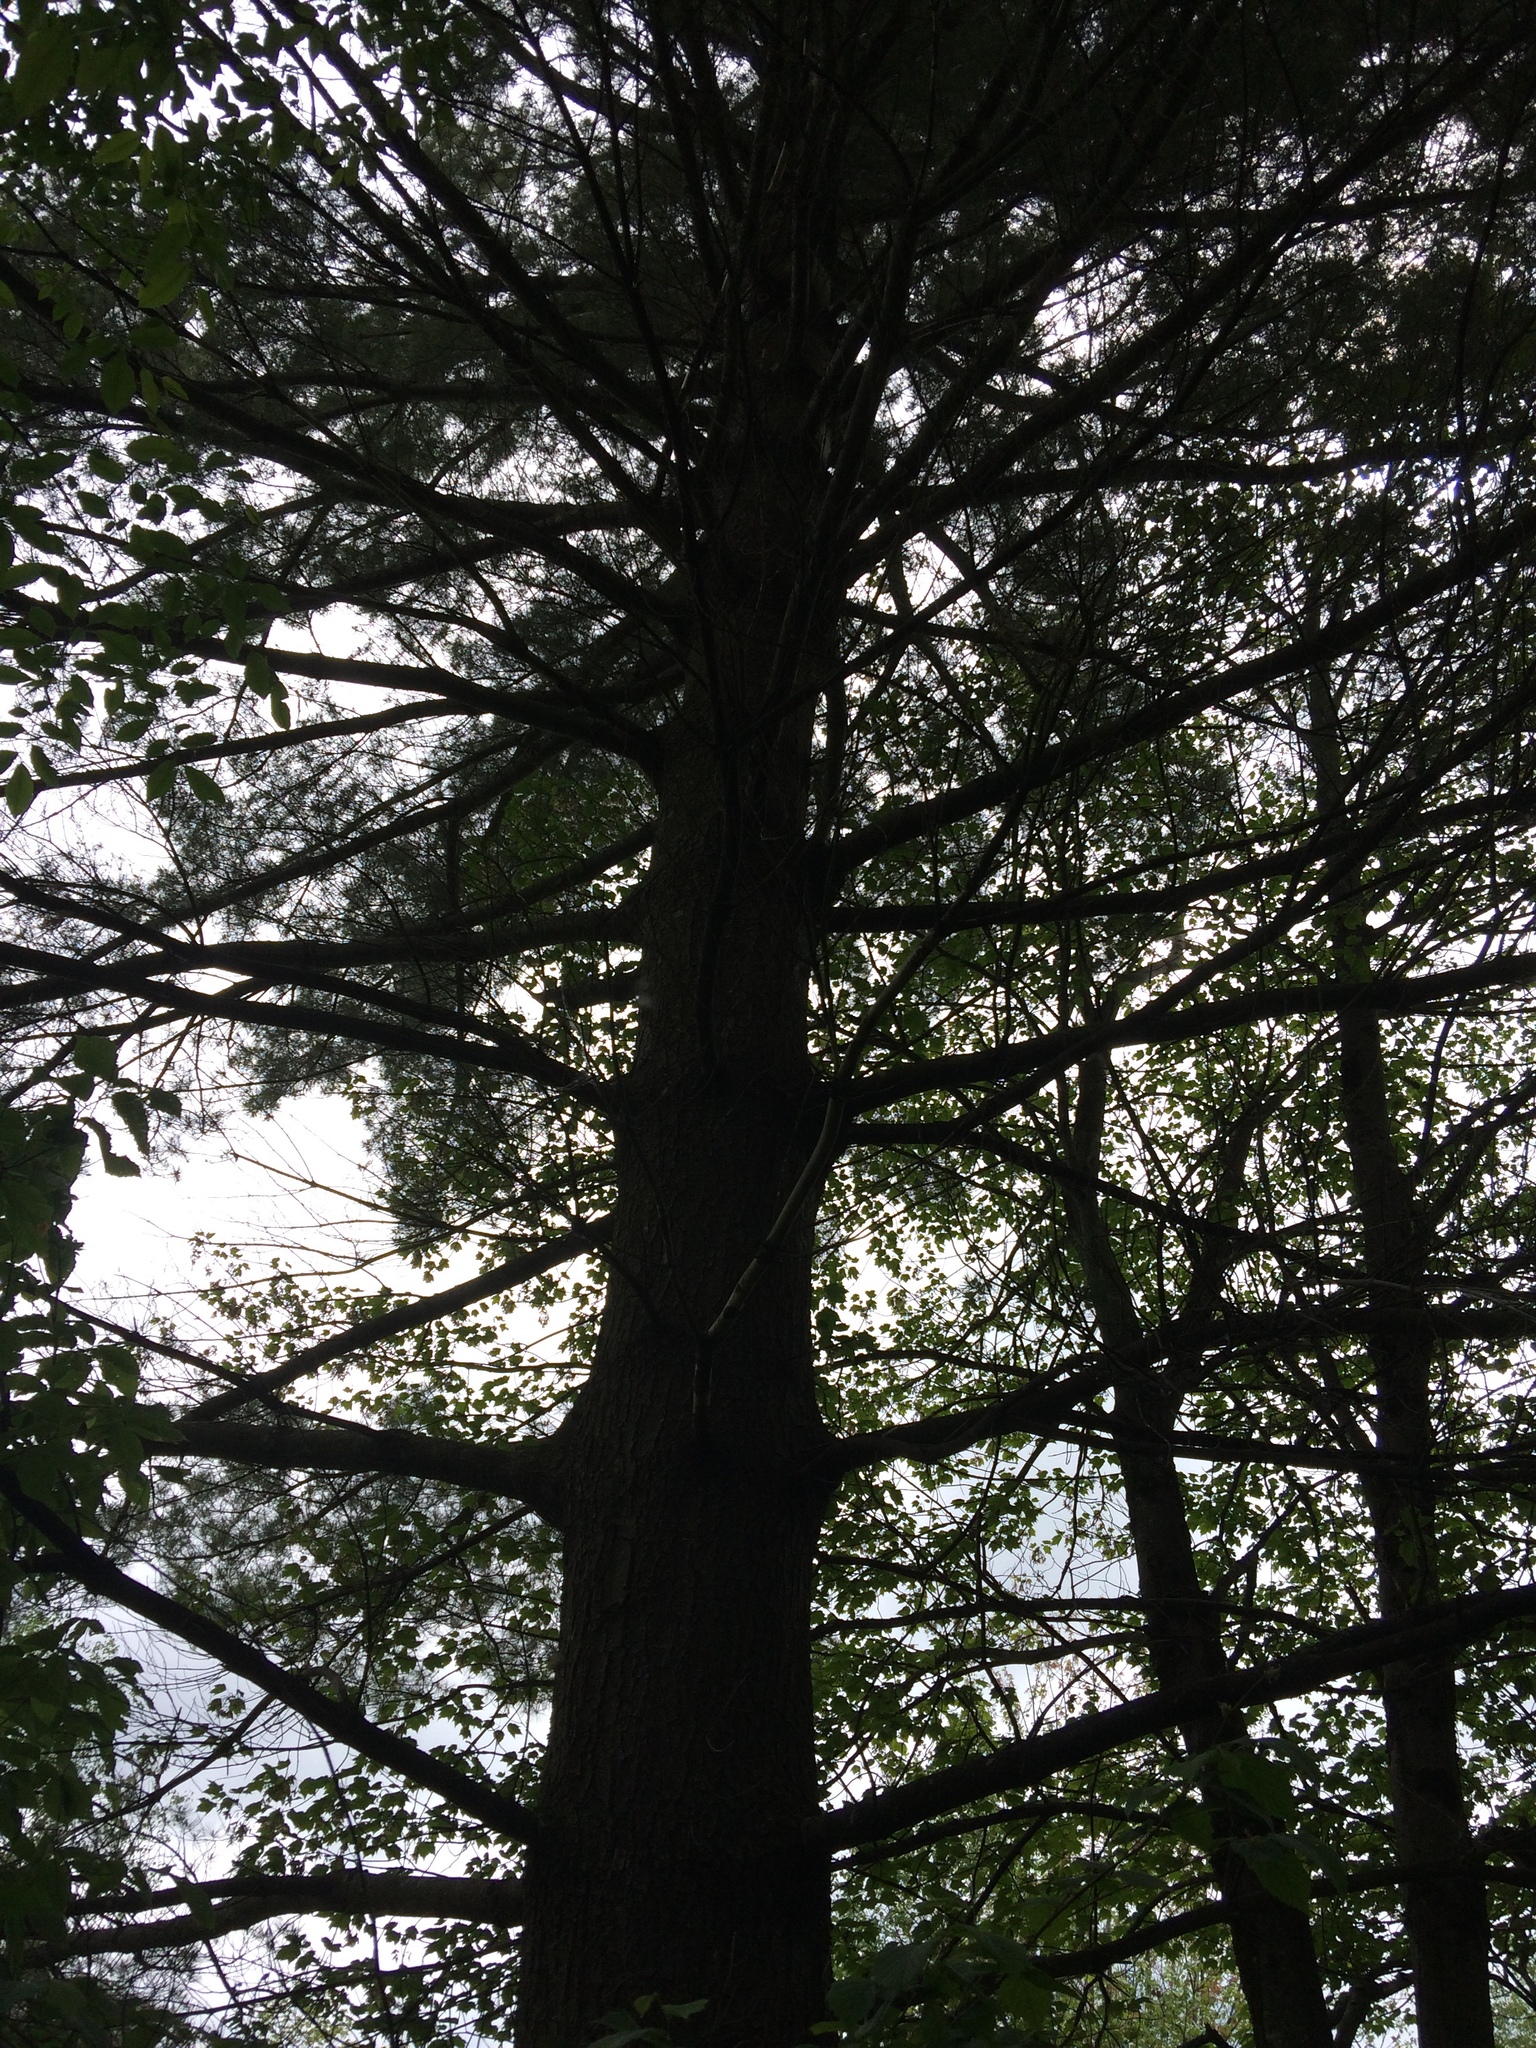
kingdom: Plantae
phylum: Tracheophyta
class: Pinopsida
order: Pinales
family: Pinaceae
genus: Pinus
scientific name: Pinus strobus
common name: Weymouth pine
